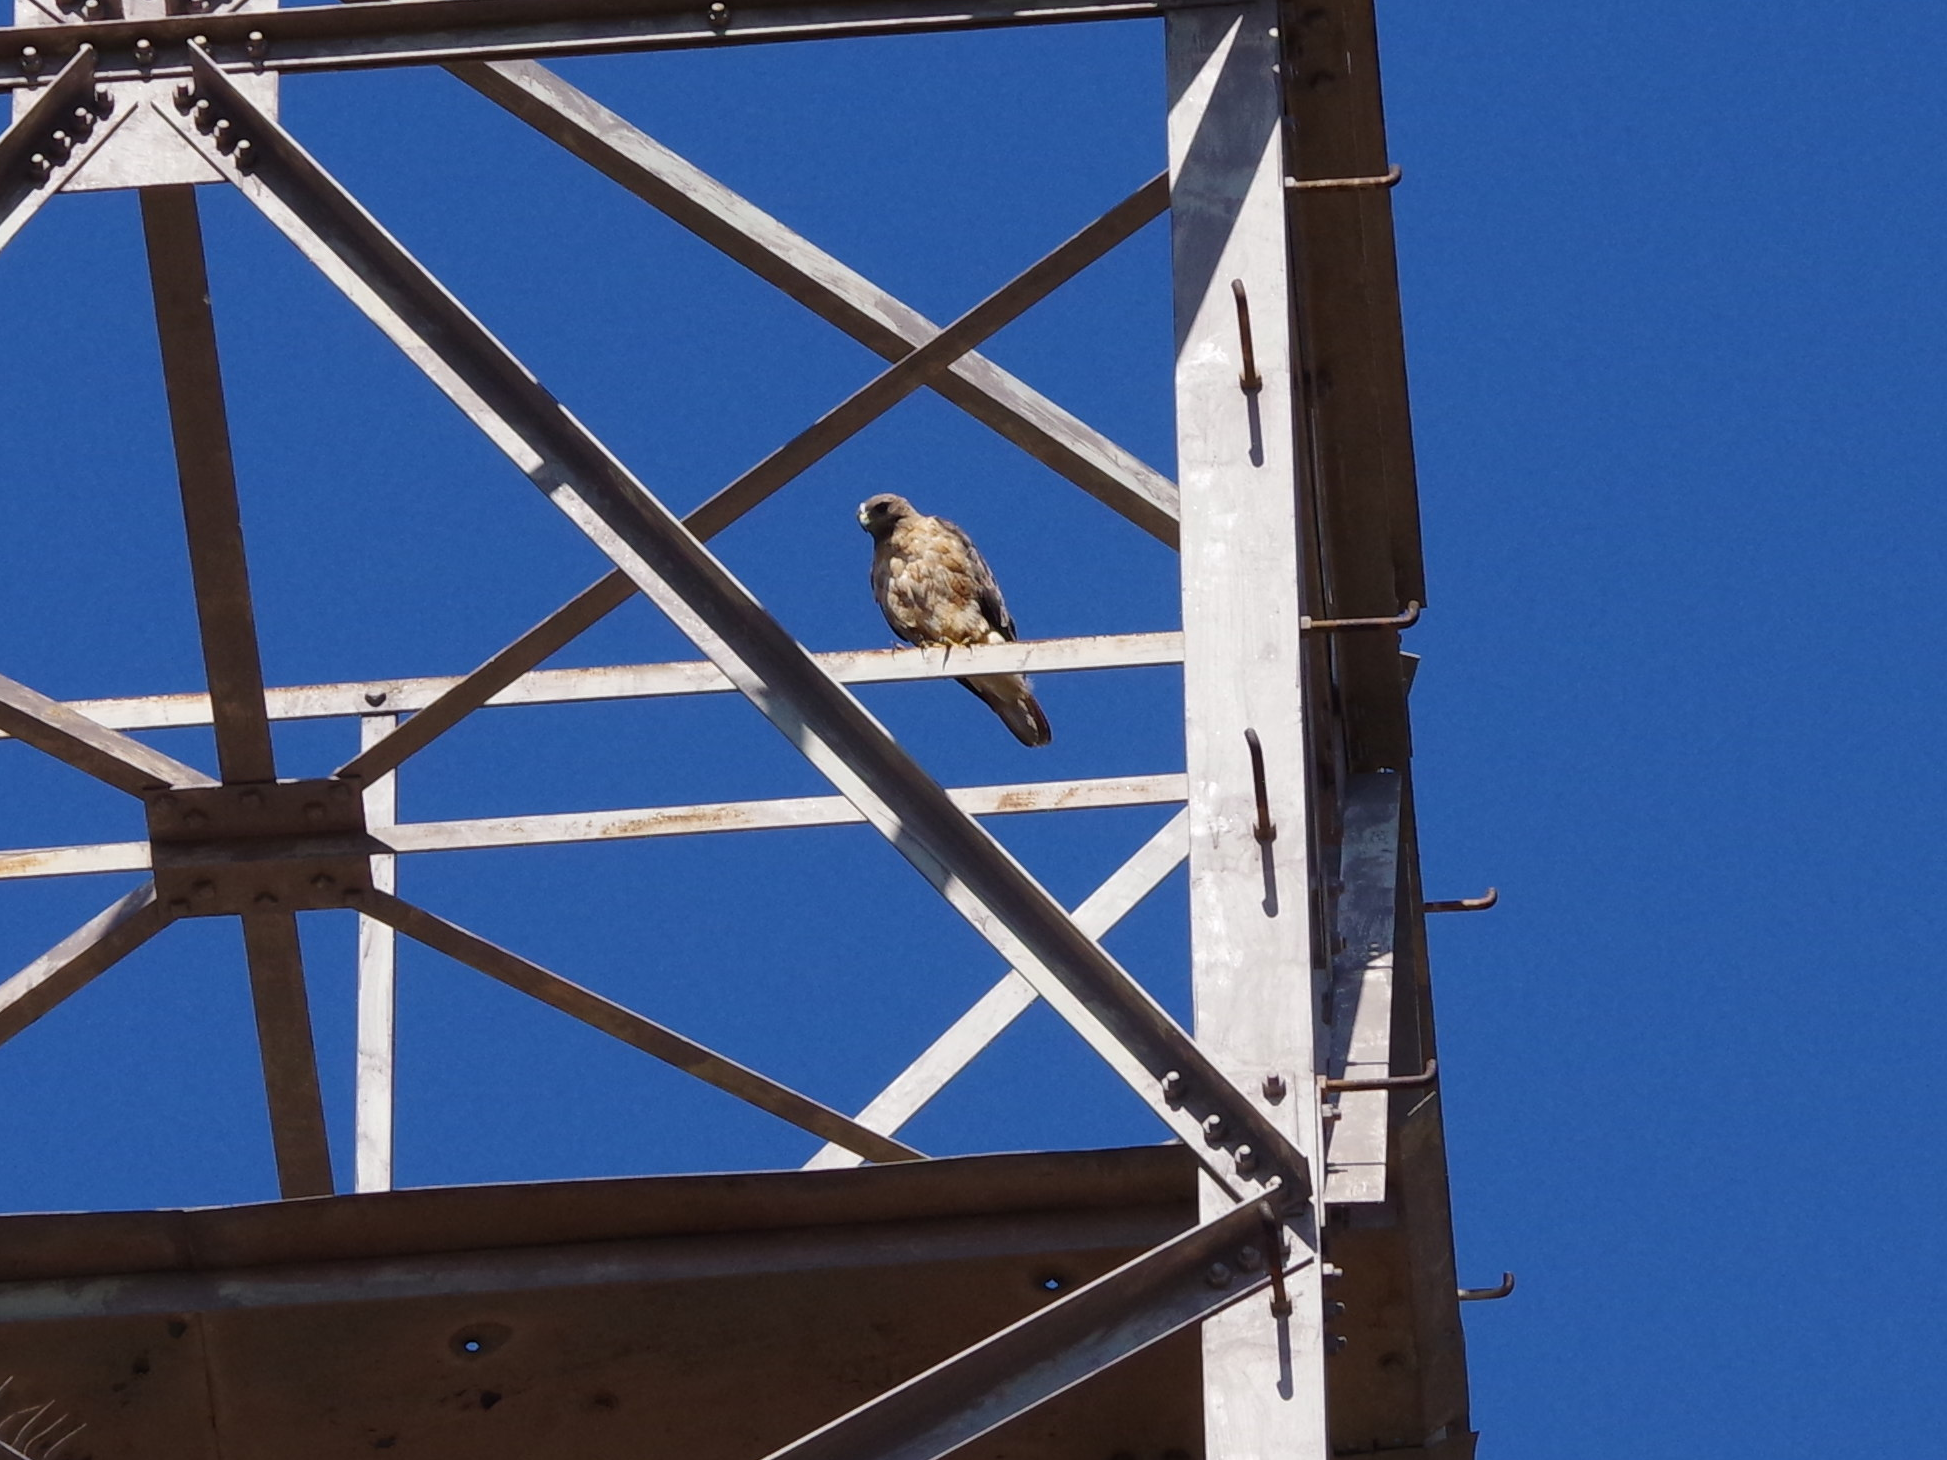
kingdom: Animalia
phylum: Chordata
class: Aves
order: Accipitriformes
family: Accipitridae
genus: Buteo
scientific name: Buteo jamaicensis
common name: Red-tailed hawk
